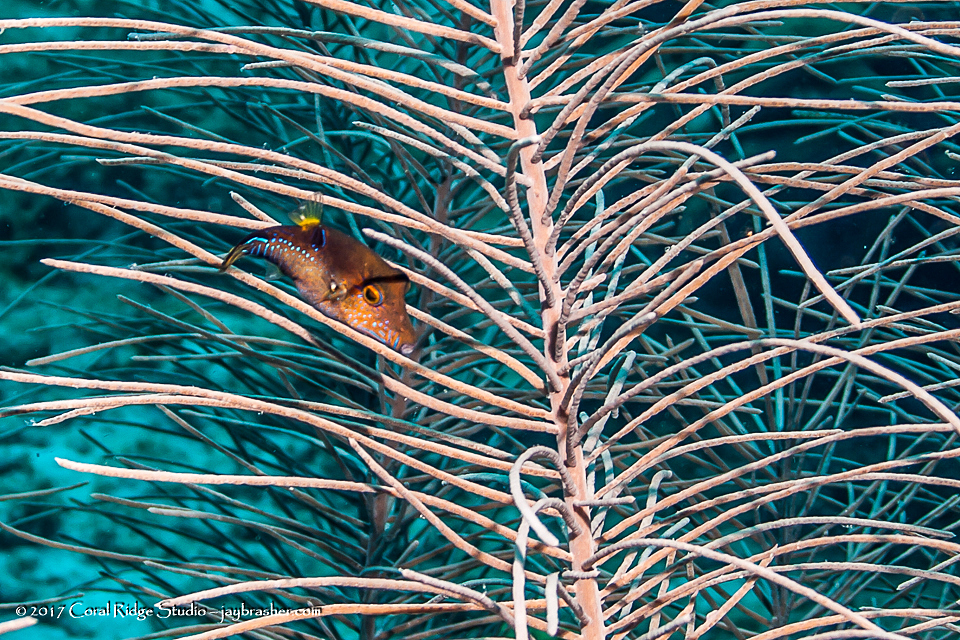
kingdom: Animalia
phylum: Chordata
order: Tetraodontiformes
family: Tetraodontidae
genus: Canthigaster
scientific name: Canthigaster rostrata
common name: Caribbean sharpnose-puffer
